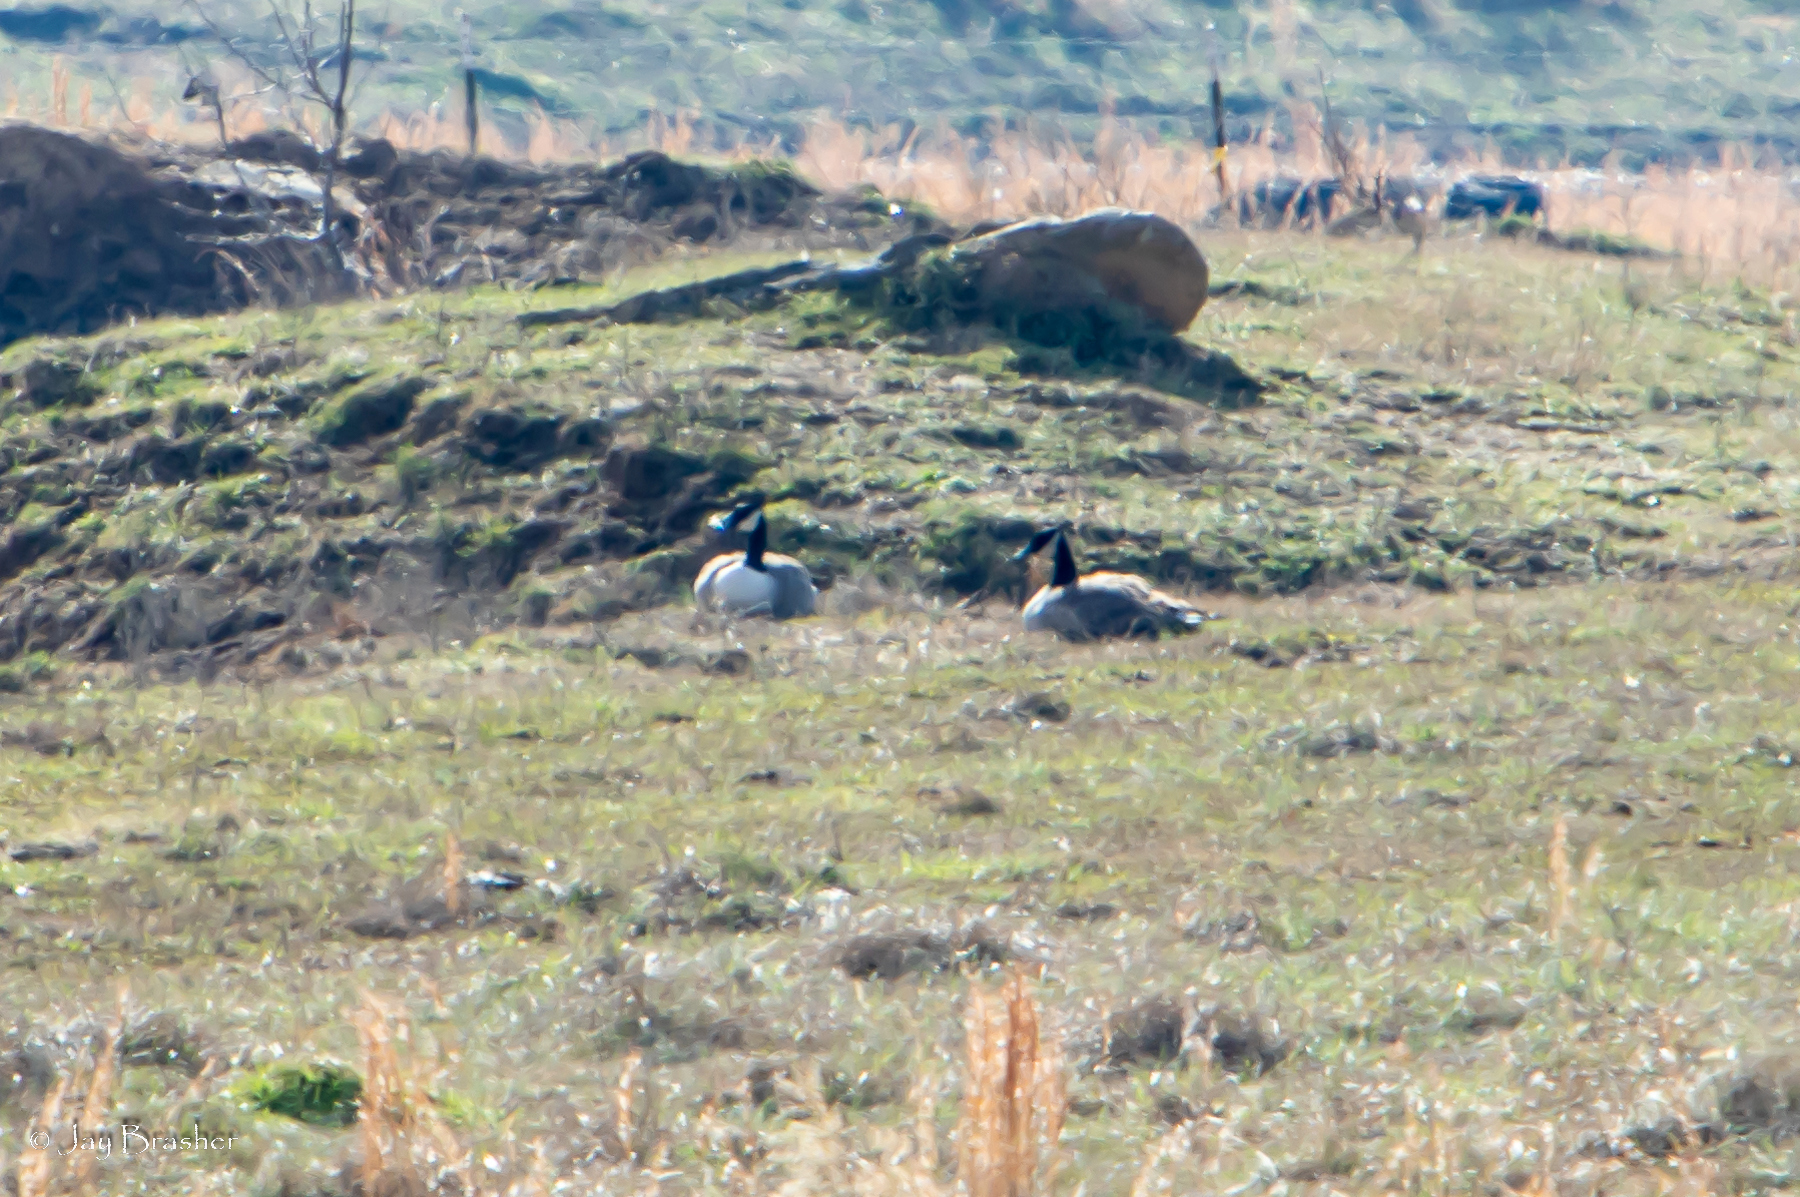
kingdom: Animalia
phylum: Chordata
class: Aves
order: Anseriformes
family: Anatidae
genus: Branta
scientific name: Branta canadensis
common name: Canada goose
